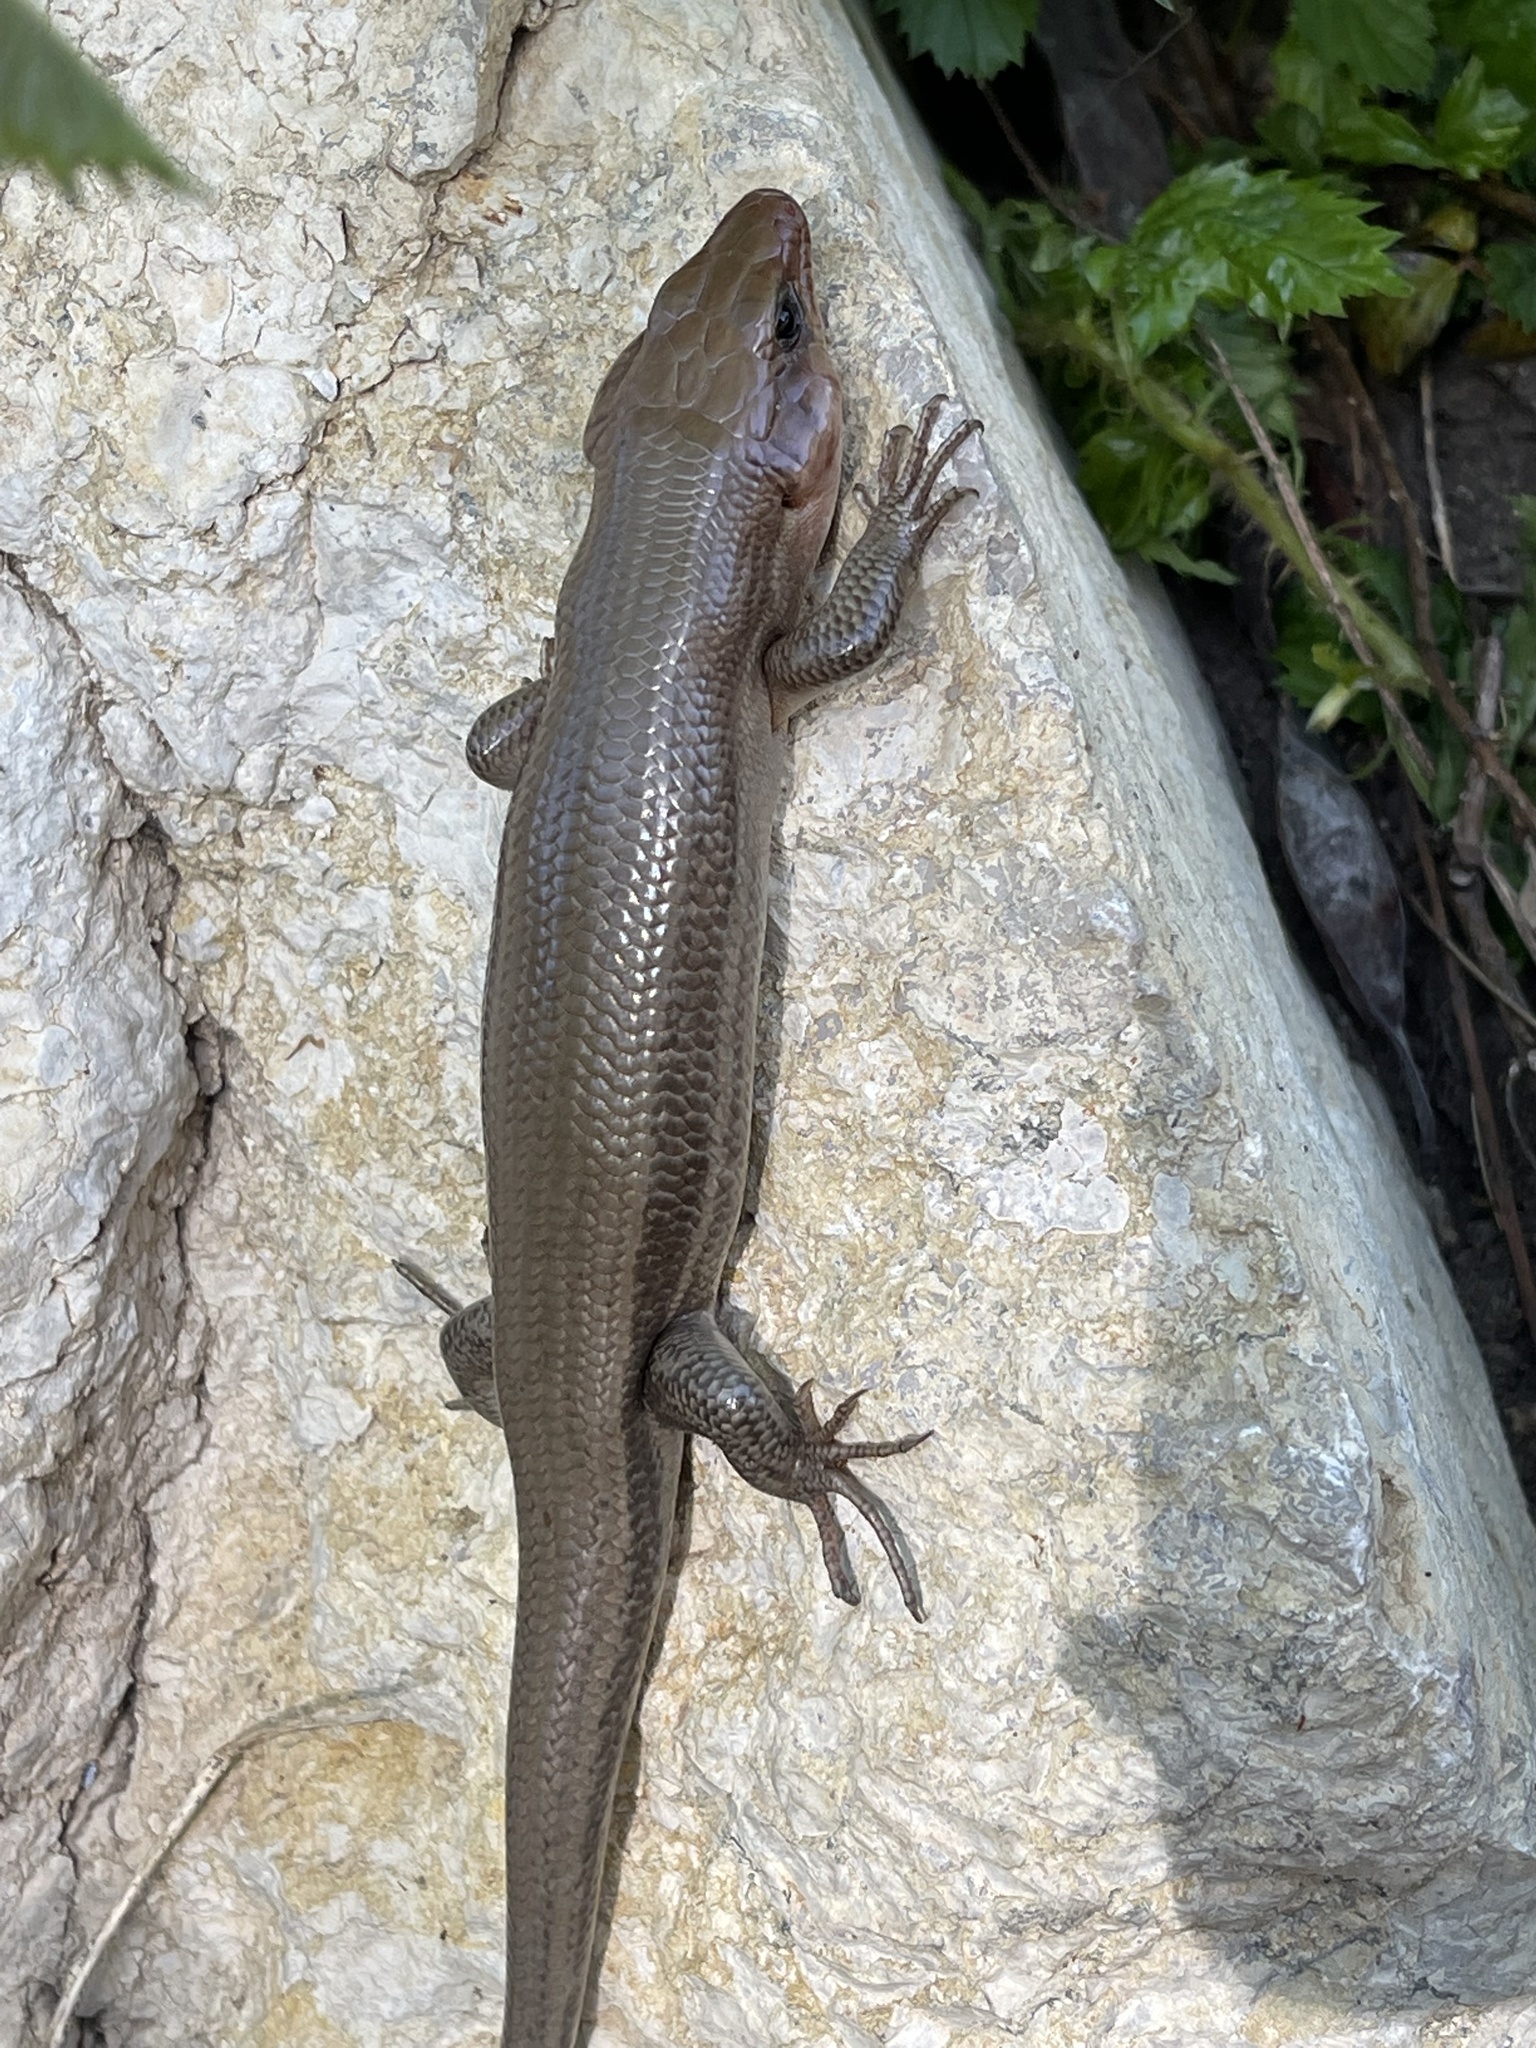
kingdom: Animalia
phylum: Chordata
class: Squamata
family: Scincidae
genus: Plestiodon
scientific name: Plestiodon laticeps
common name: Broadhead skink
